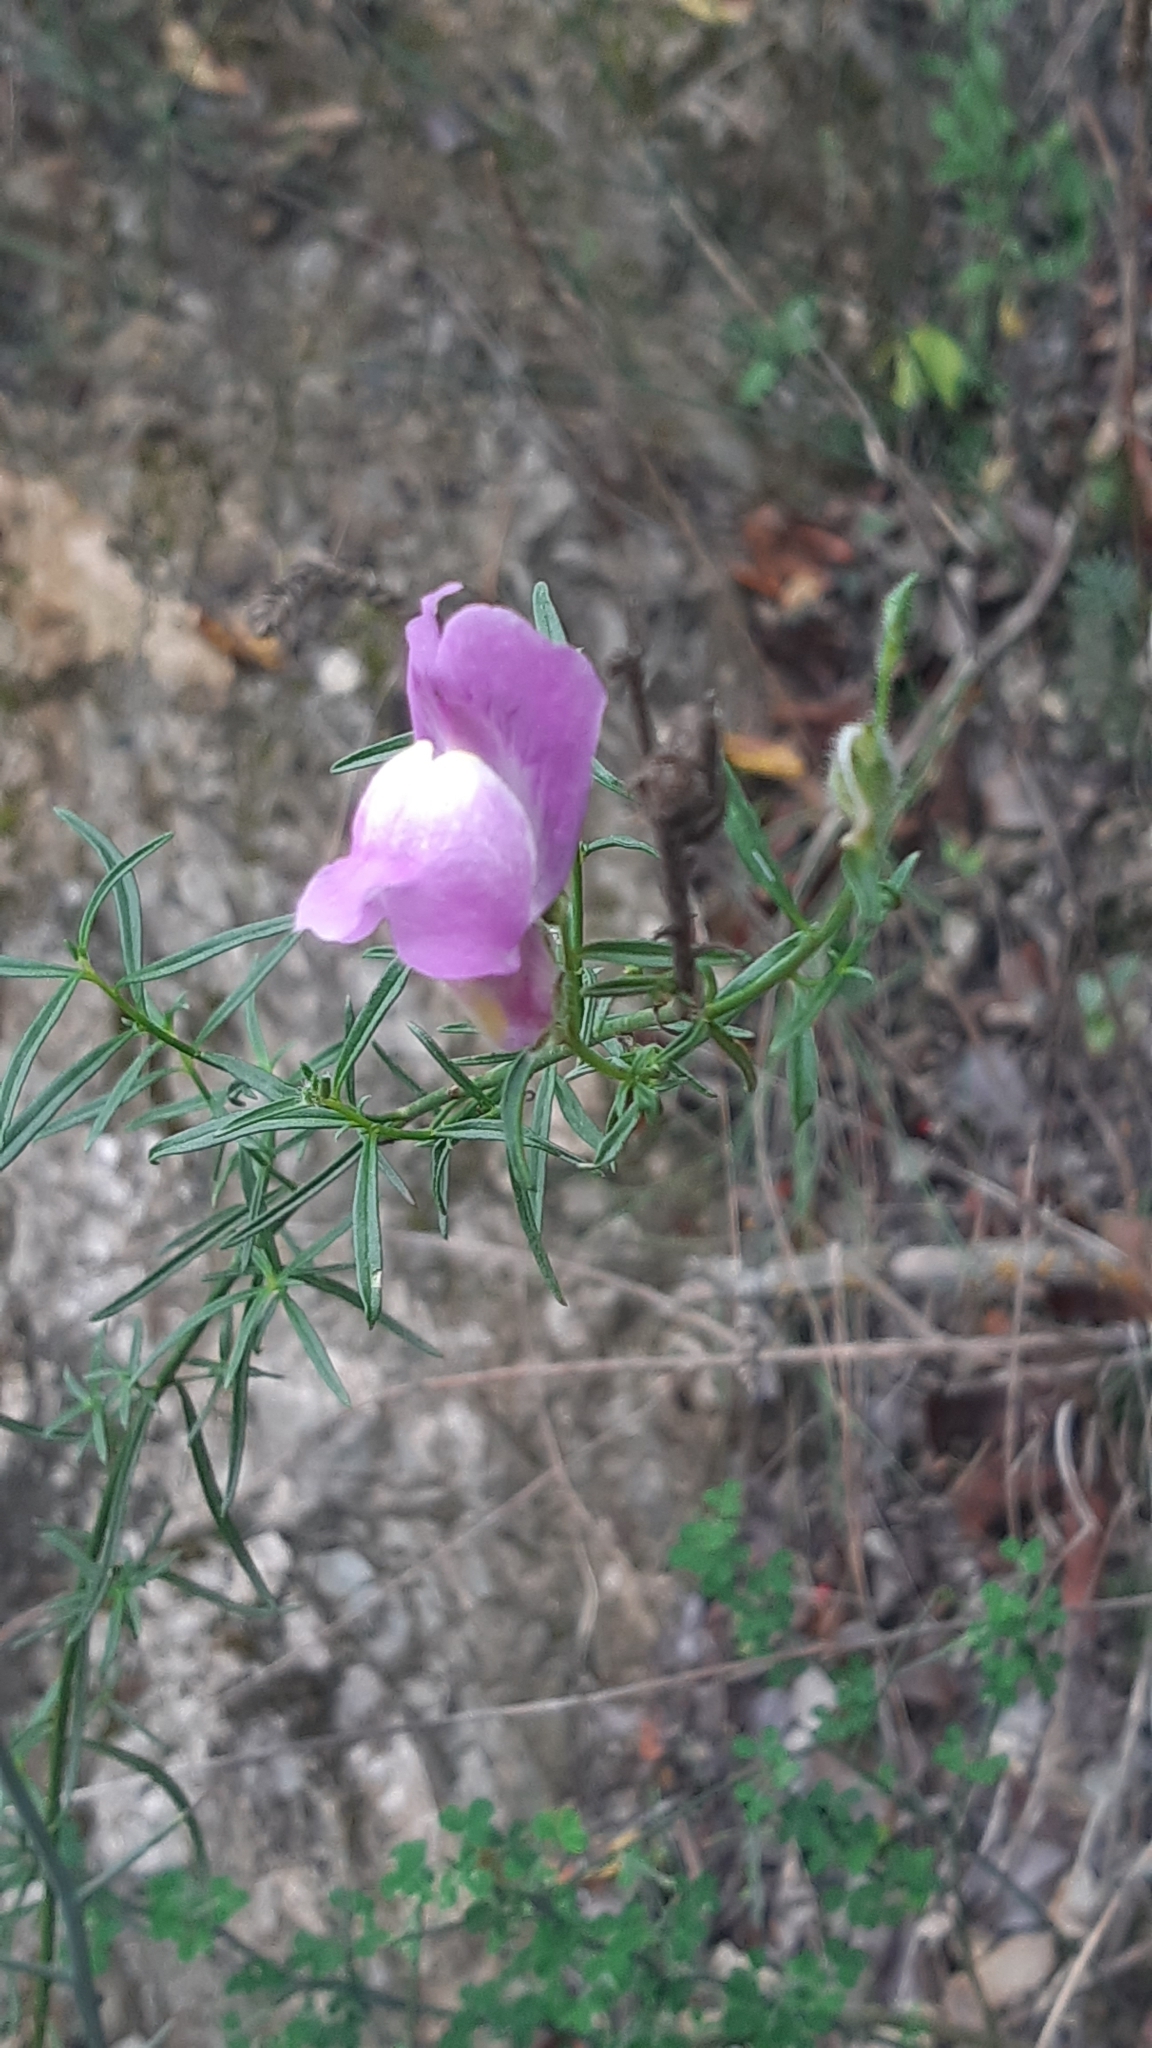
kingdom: Plantae
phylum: Tracheophyta
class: Magnoliopsida
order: Lamiales
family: Plantaginaceae
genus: Antirrhinum
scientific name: Antirrhinum litigiosum
